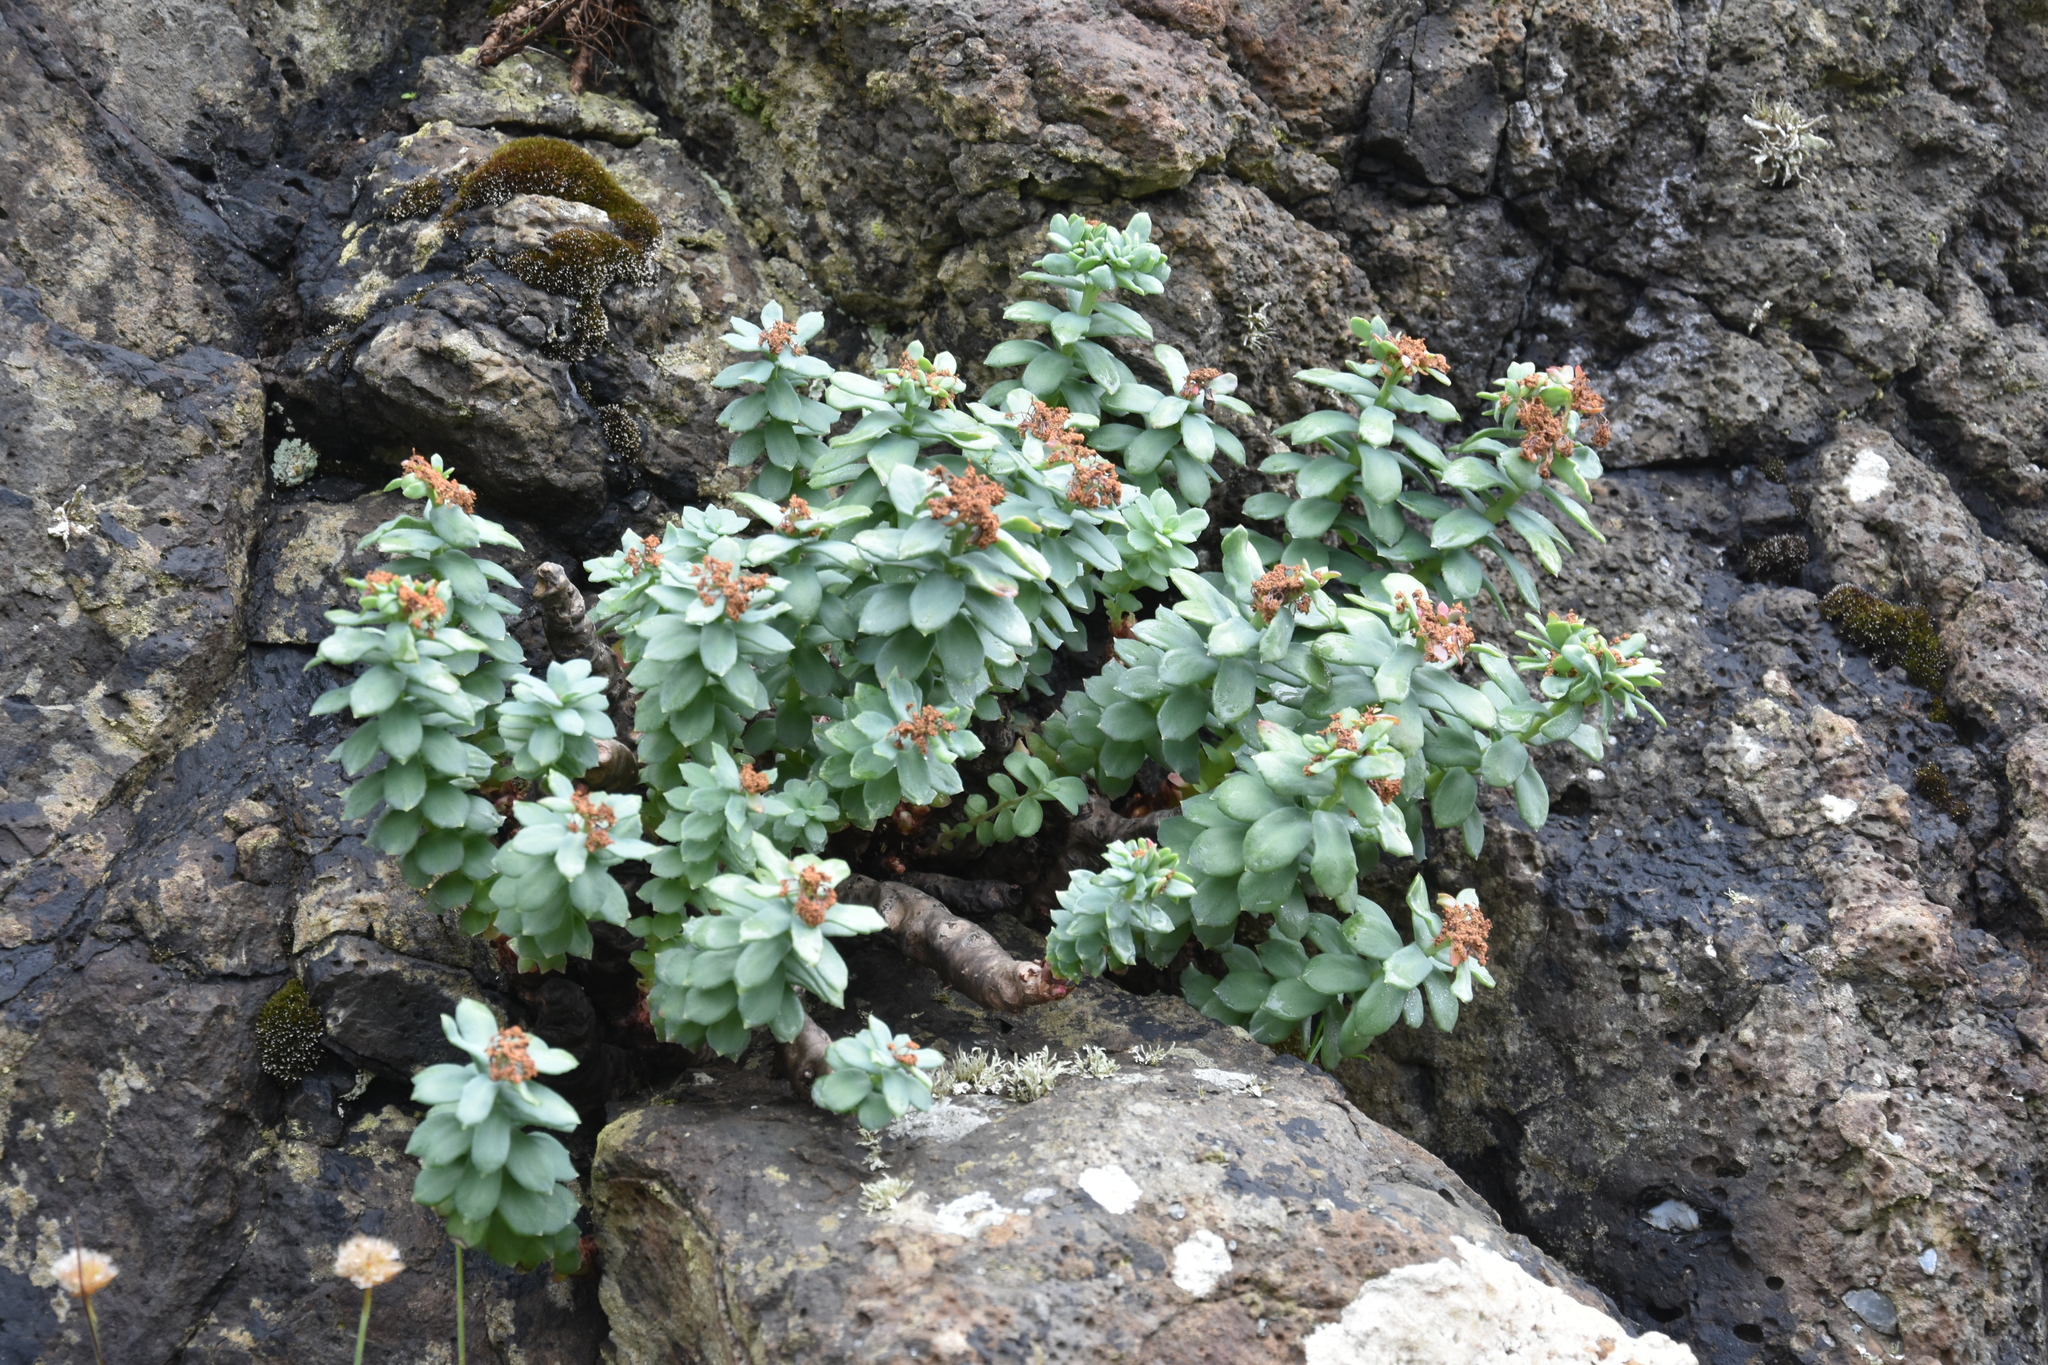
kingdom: Plantae
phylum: Tracheophyta
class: Magnoliopsida
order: Saxifragales
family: Crassulaceae
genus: Rhodiola
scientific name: Rhodiola rosea
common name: Roseroot
